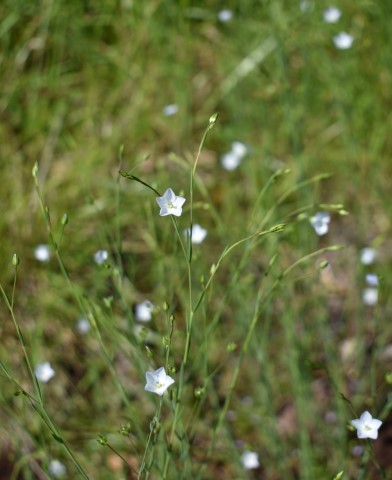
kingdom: Plantae
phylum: Tracheophyta
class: Magnoliopsida
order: Malpighiales
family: Linaceae
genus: Linum
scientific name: Linum bienne
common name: Pale flax
